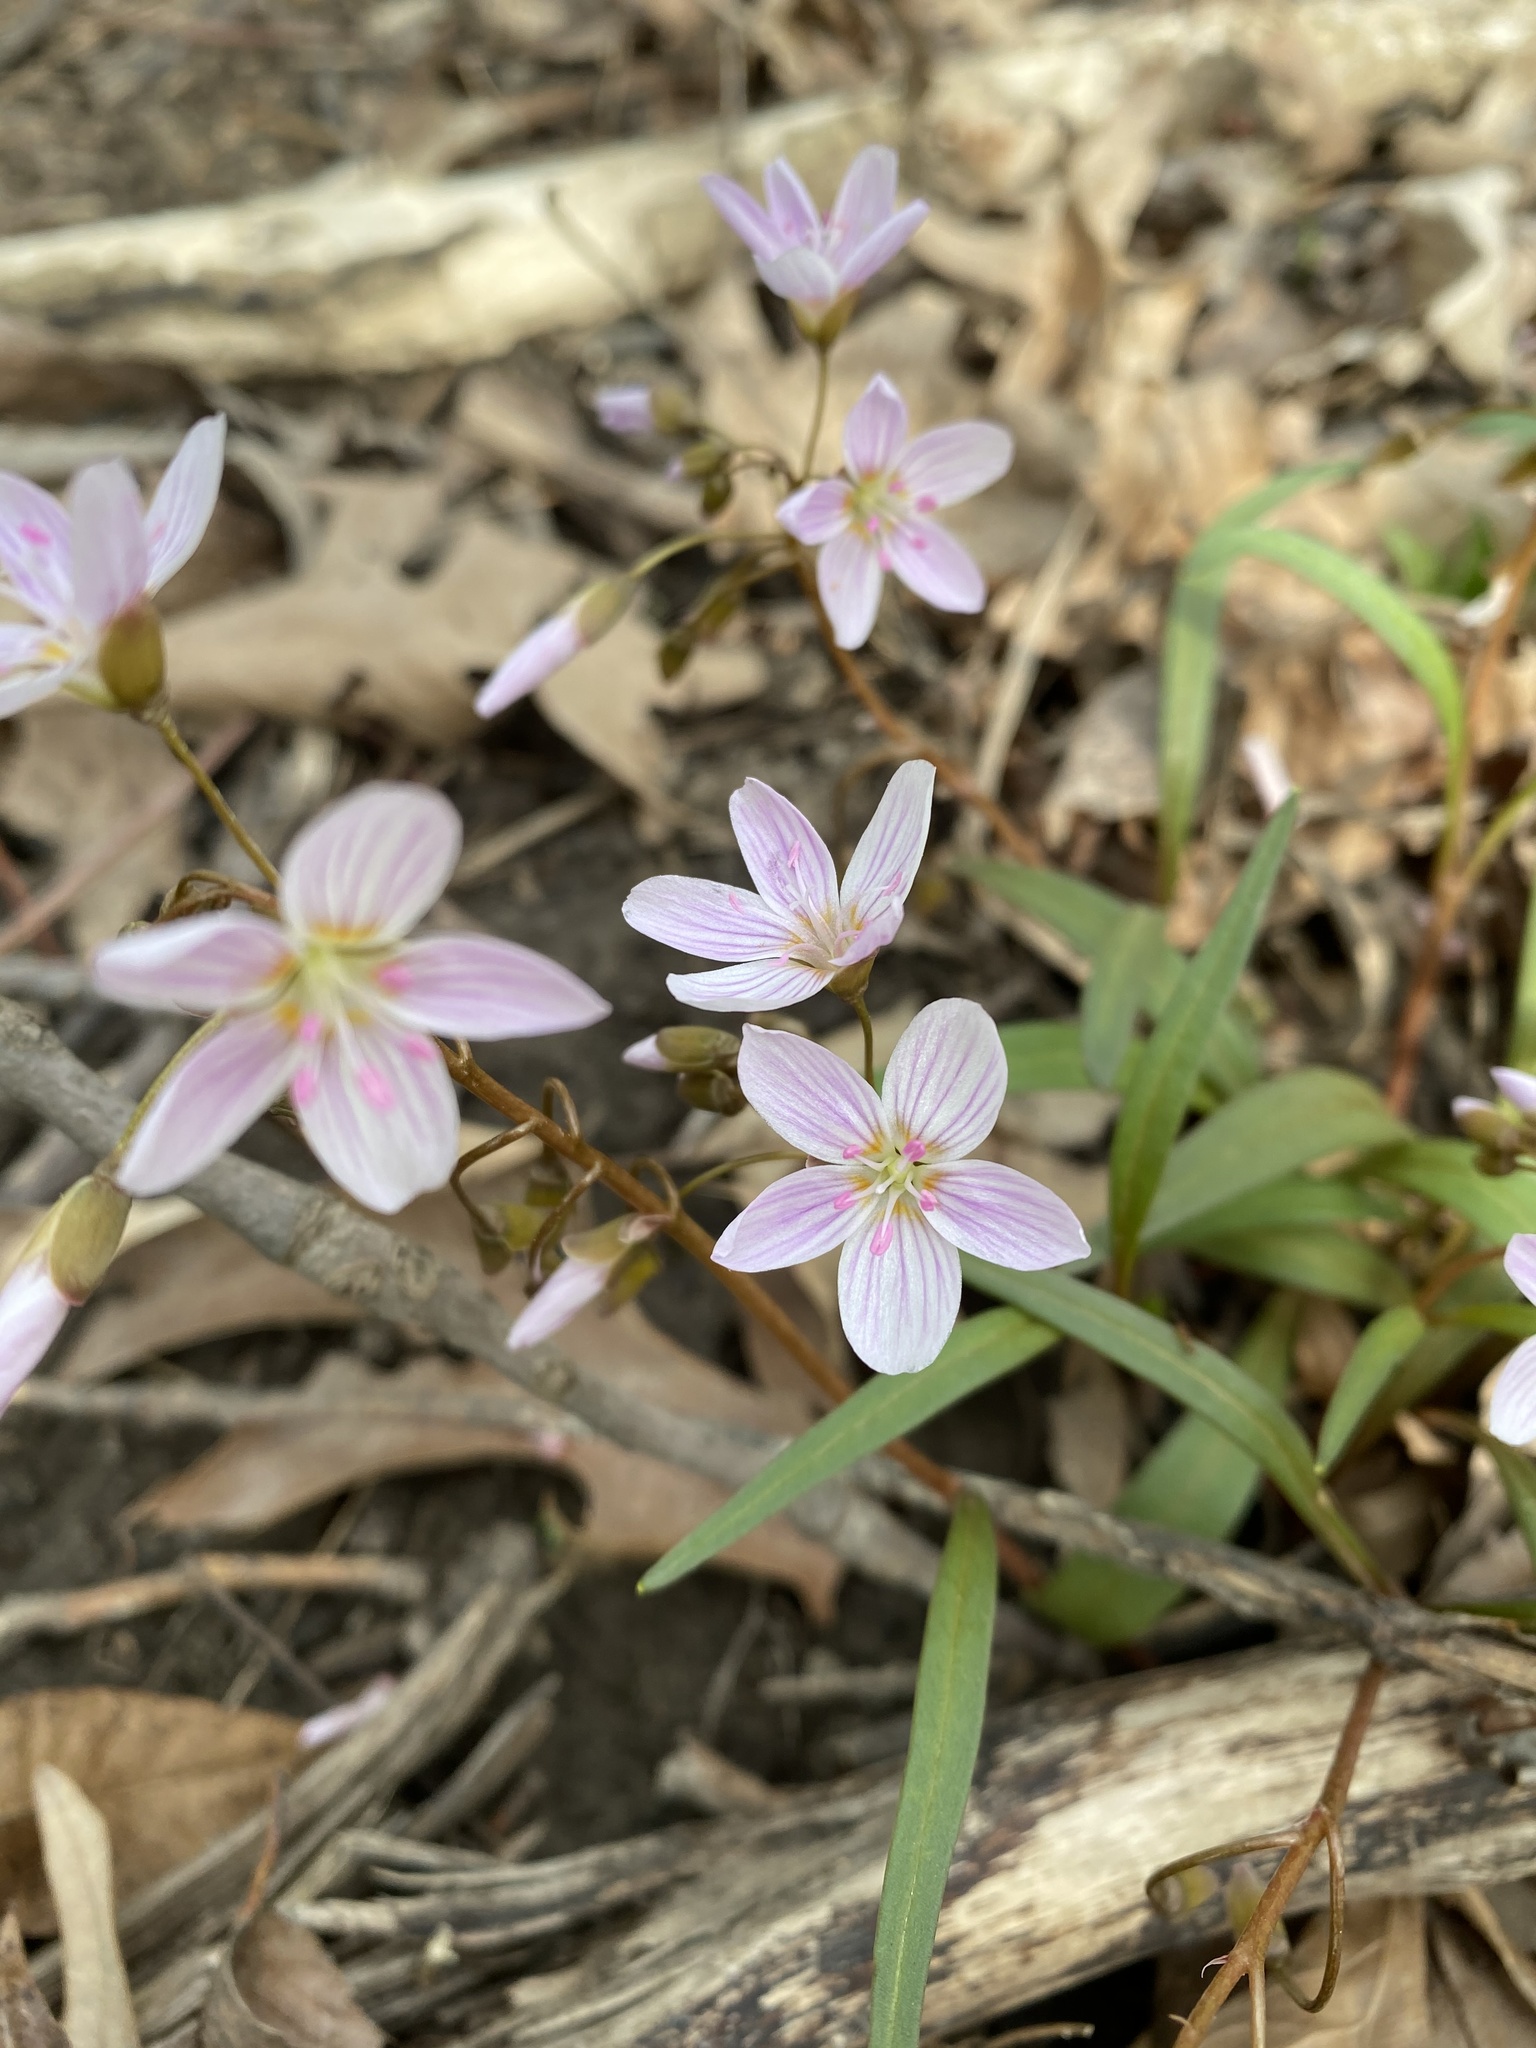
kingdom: Plantae
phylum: Tracheophyta
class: Magnoliopsida
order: Caryophyllales
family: Montiaceae
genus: Claytonia
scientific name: Claytonia virginica
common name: Virginia springbeauty
